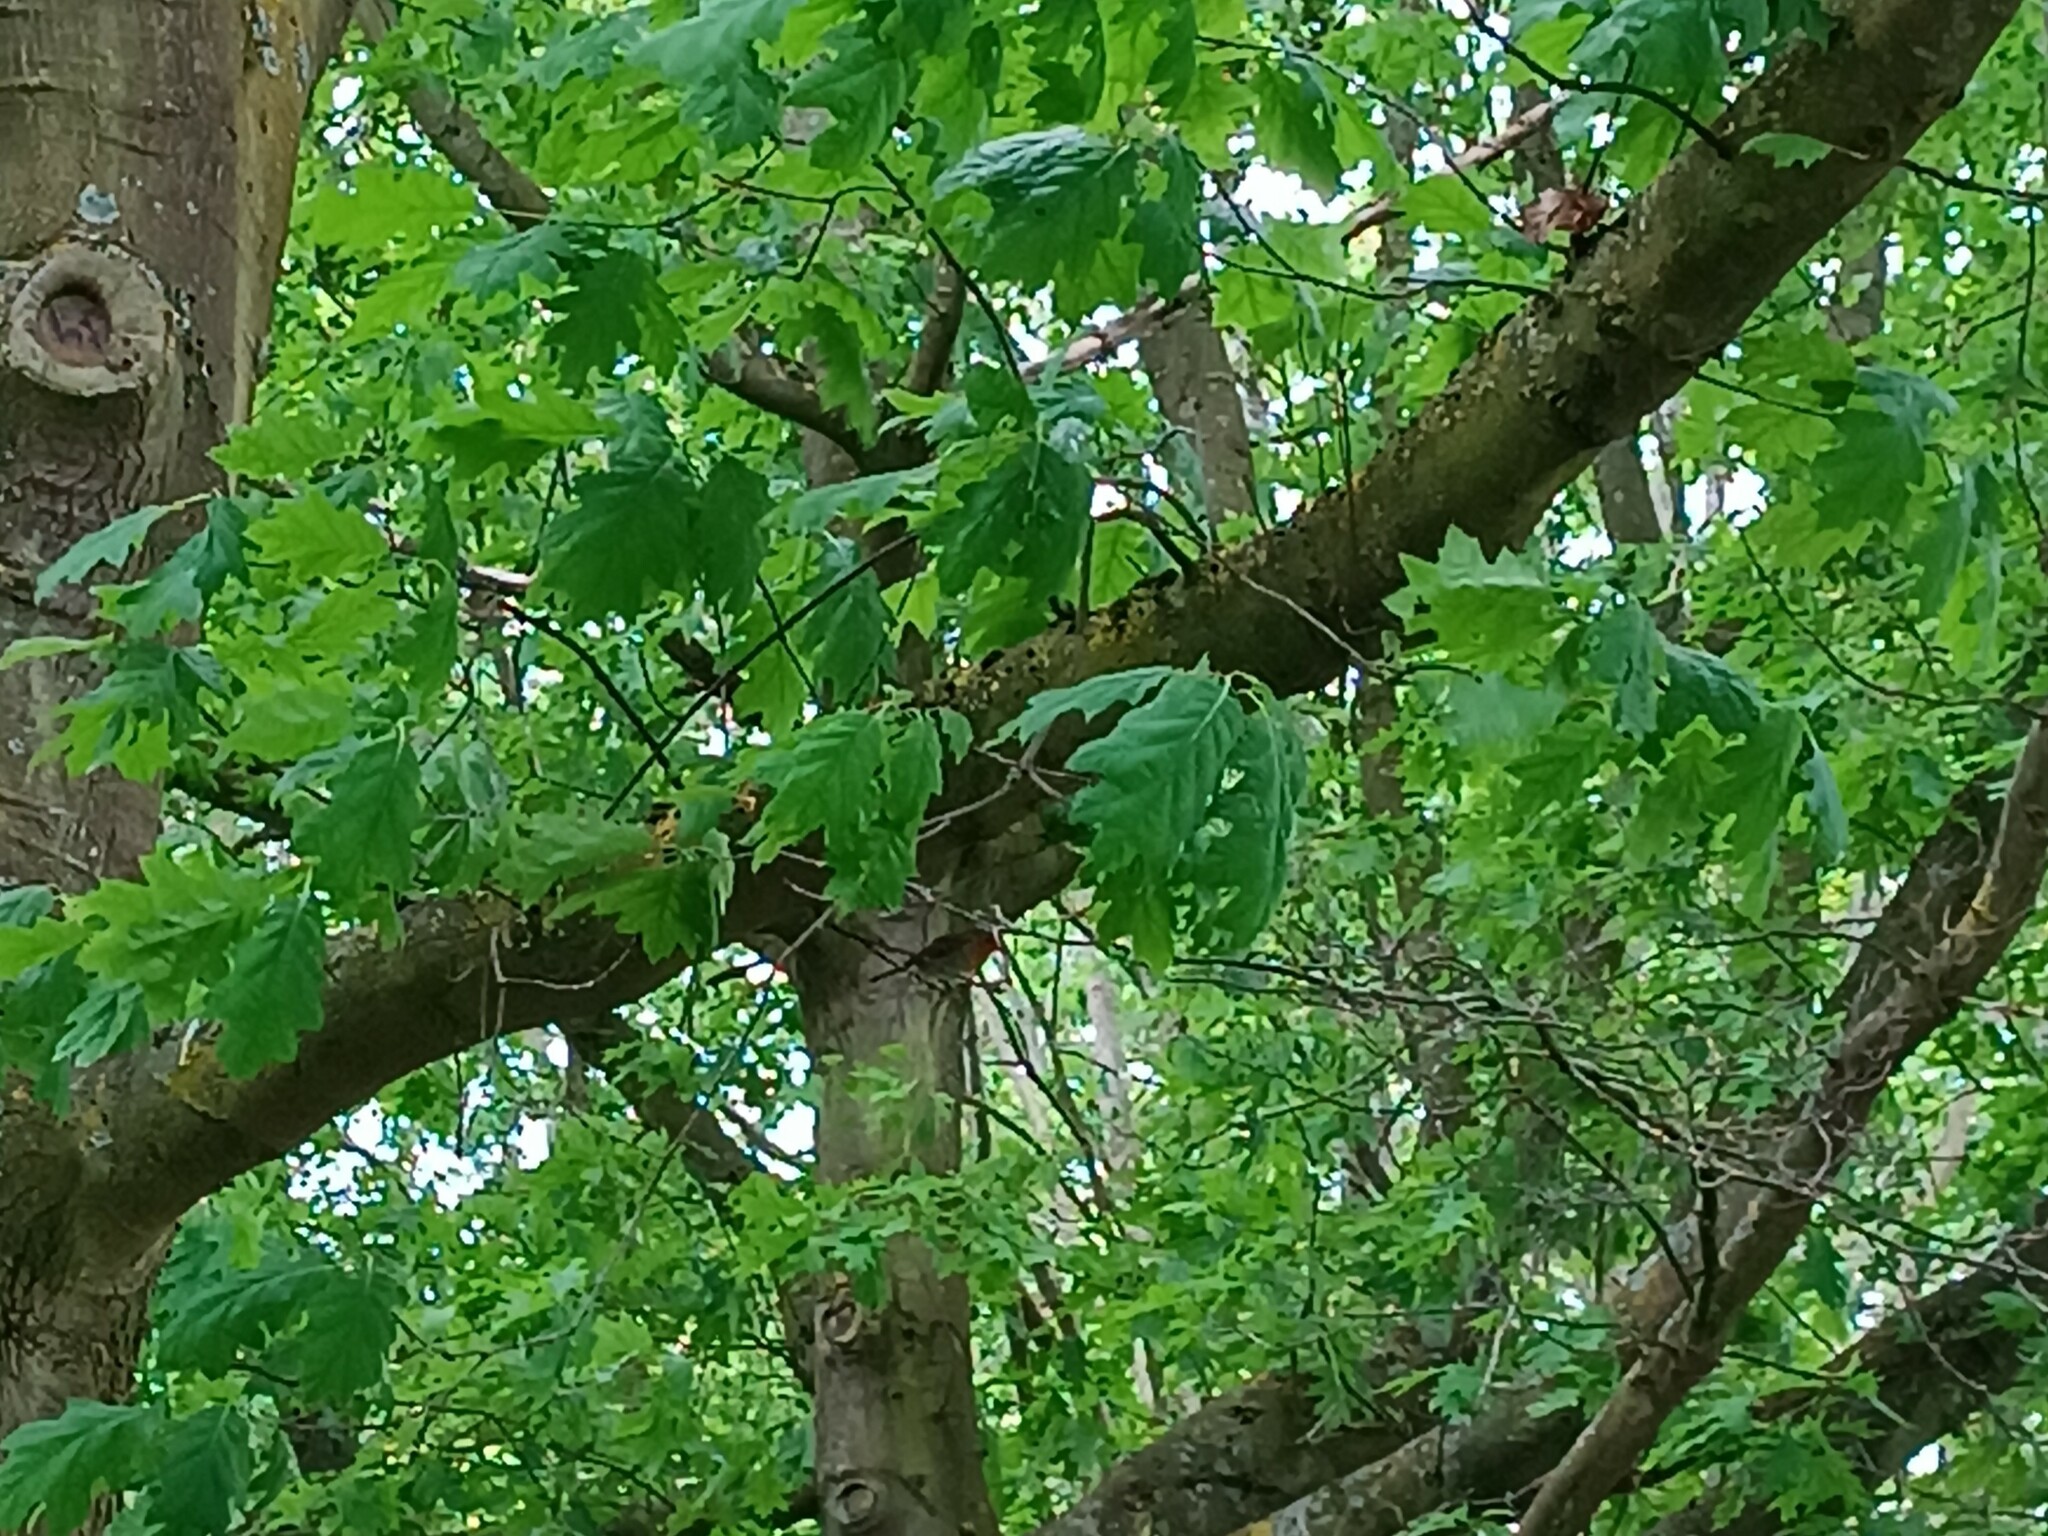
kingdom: Animalia
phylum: Chordata
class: Aves
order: Passeriformes
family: Muscicapidae
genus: Erithacus
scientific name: Erithacus rubecula
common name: European robin
